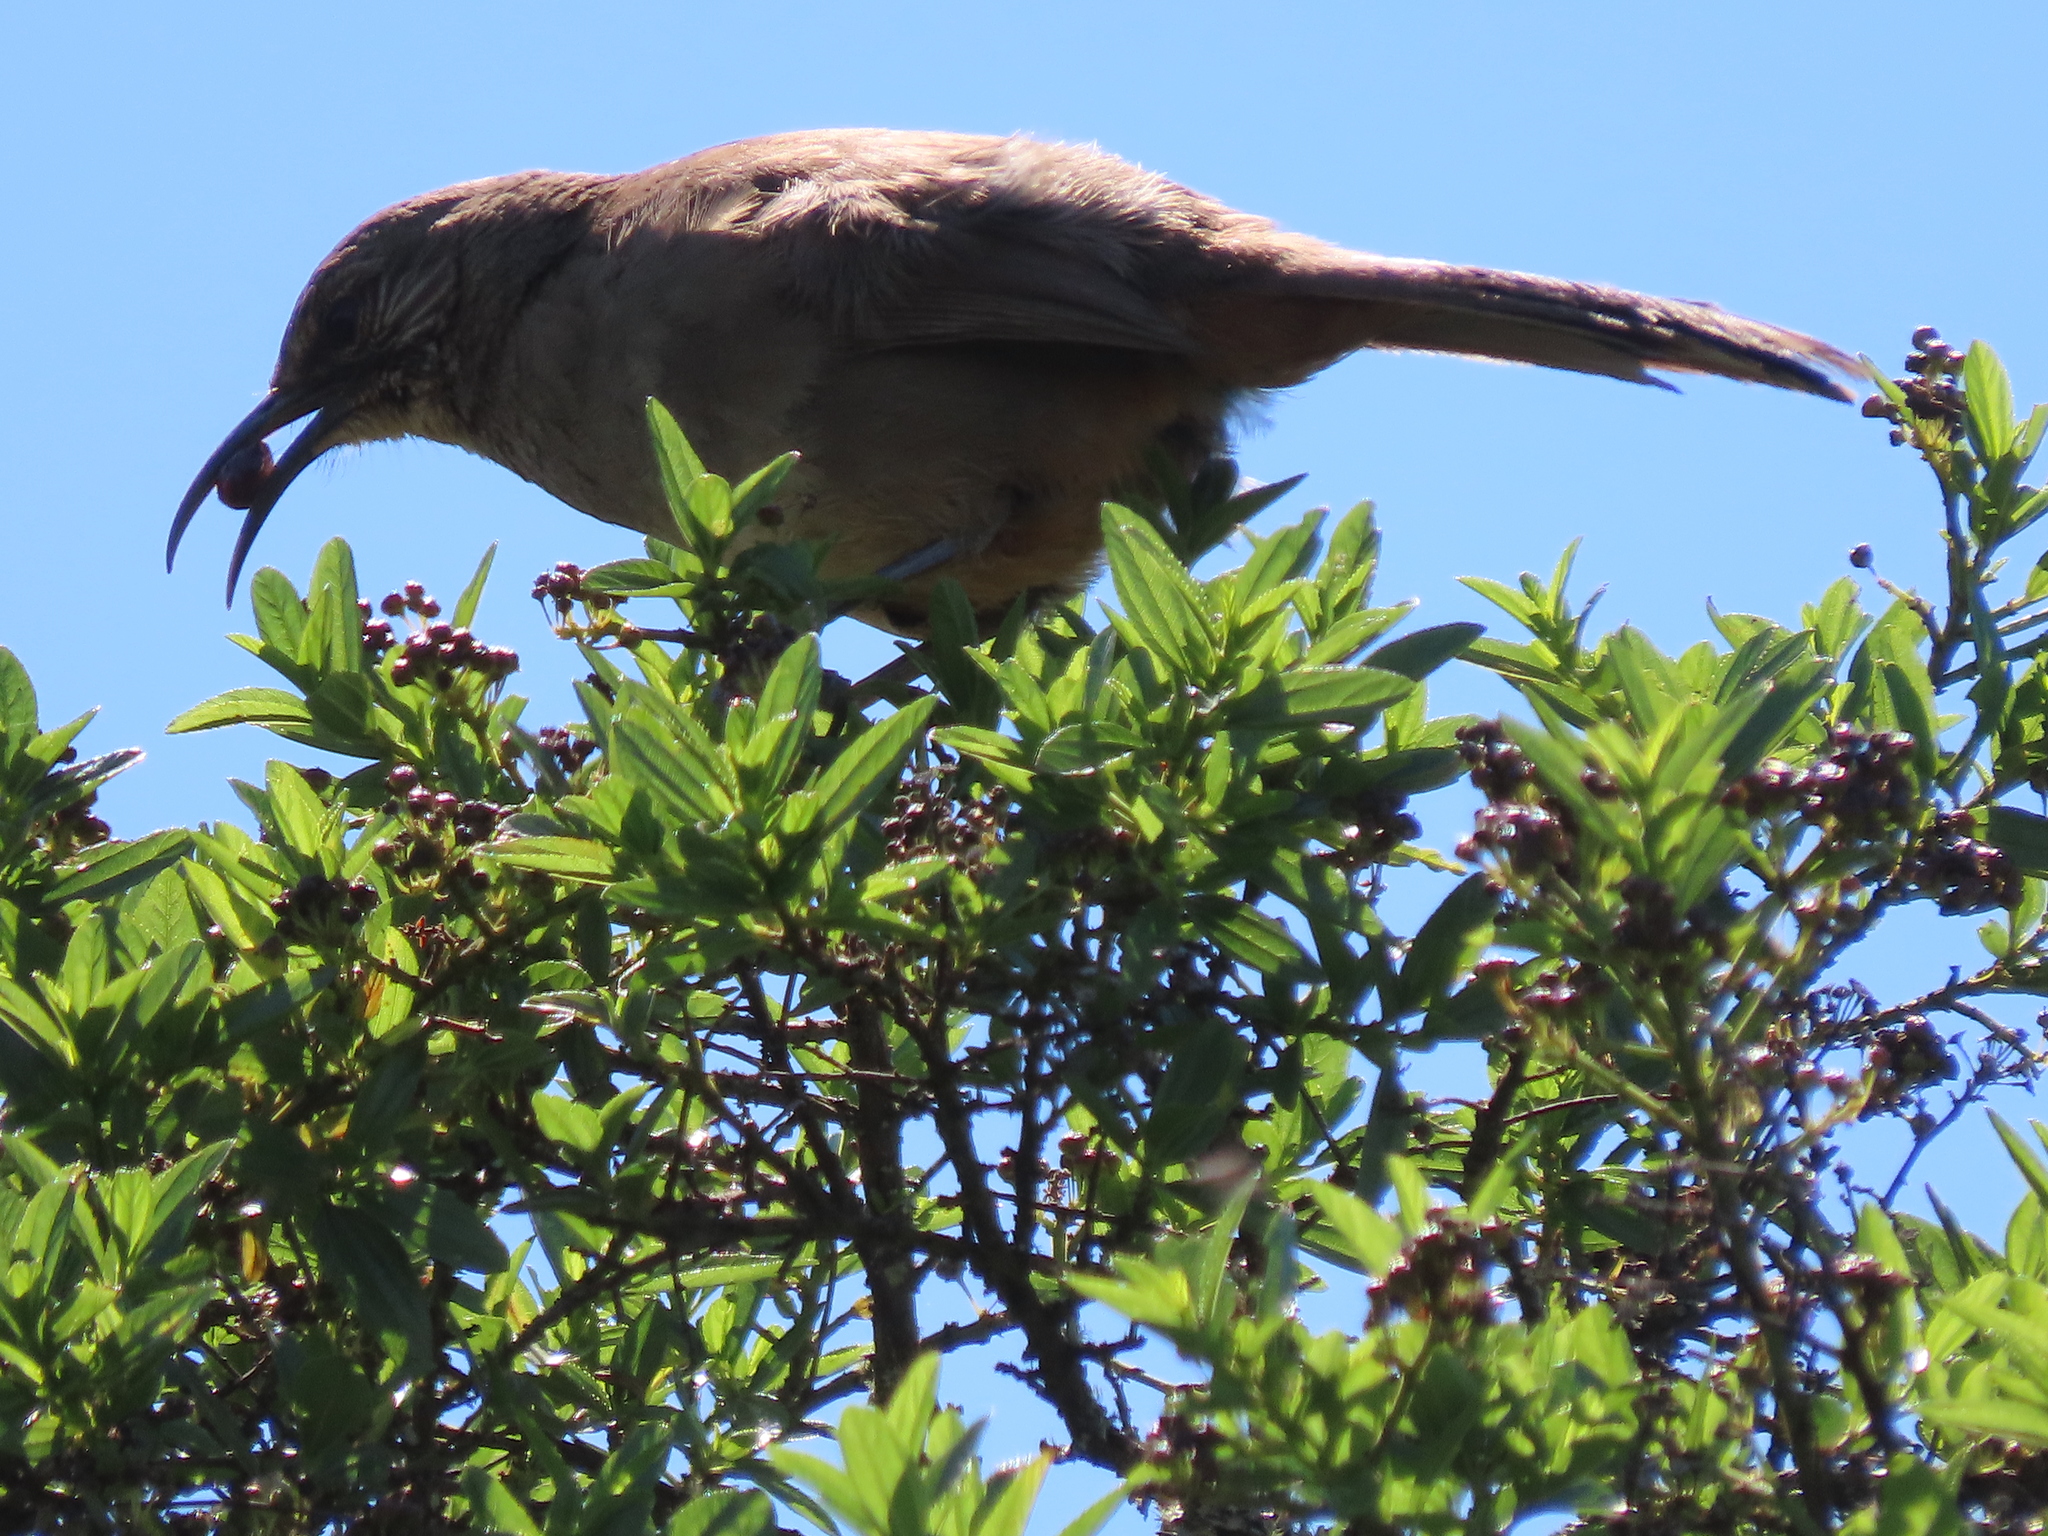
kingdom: Animalia
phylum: Chordata
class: Aves
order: Passeriformes
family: Mimidae
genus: Toxostoma
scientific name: Toxostoma redivivum
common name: California thrasher
